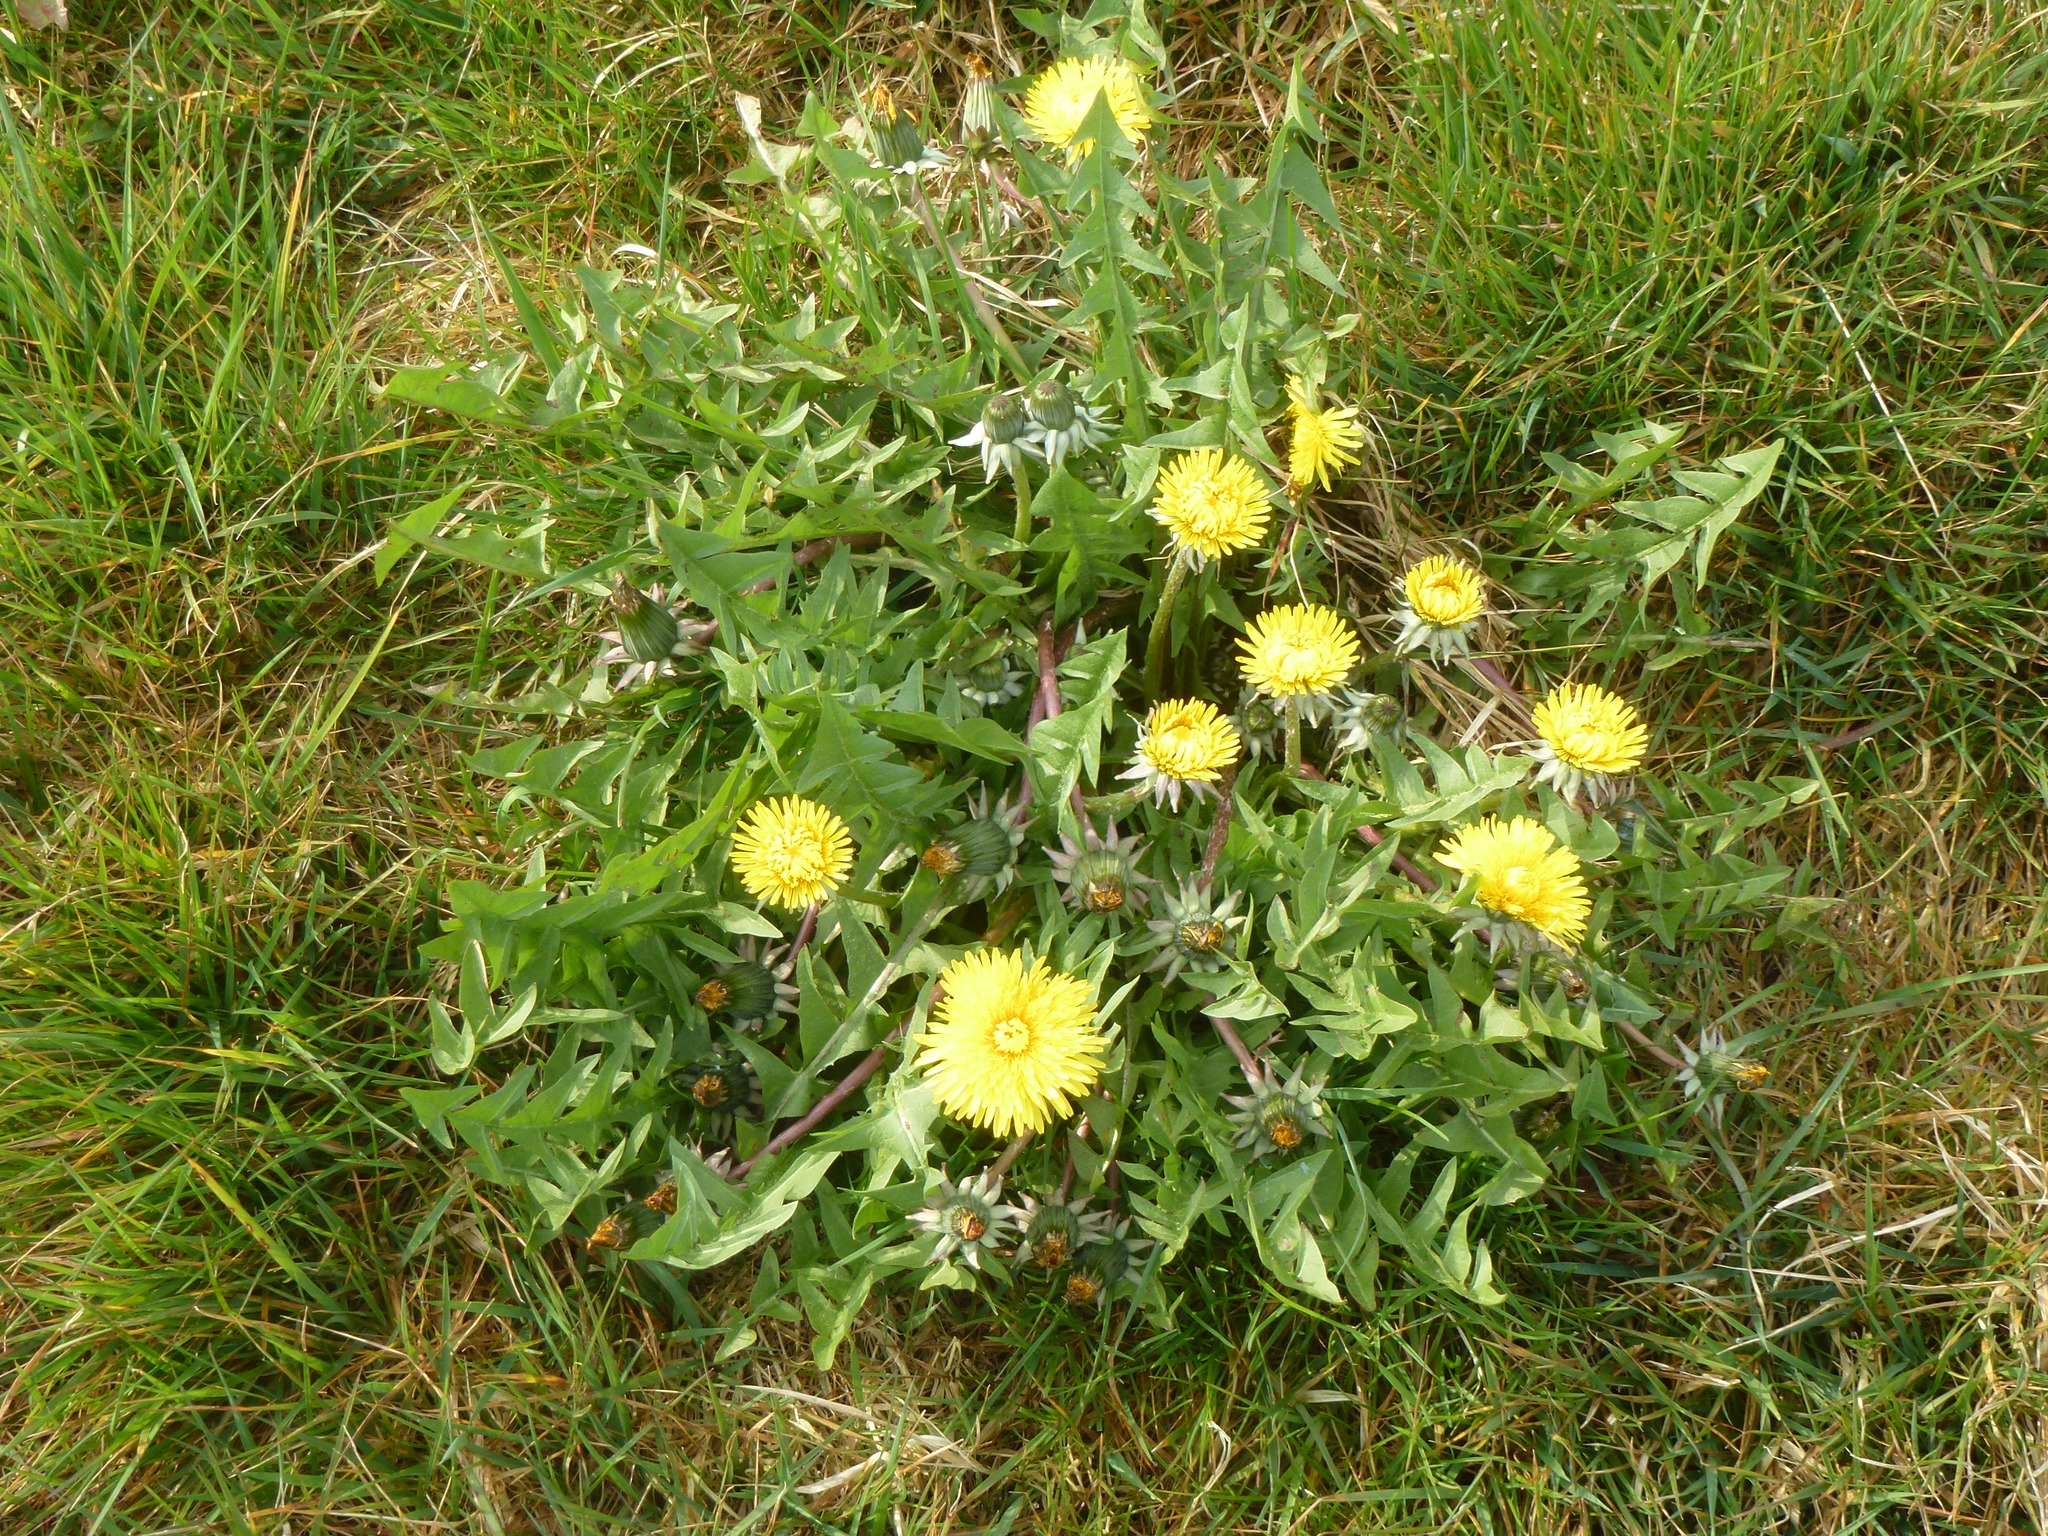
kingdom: Plantae
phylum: Tracheophyta
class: Magnoliopsida
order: Asterales
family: Asteraceae
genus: Taraxacum
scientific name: Taraxacum officinale
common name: Common dandelion
